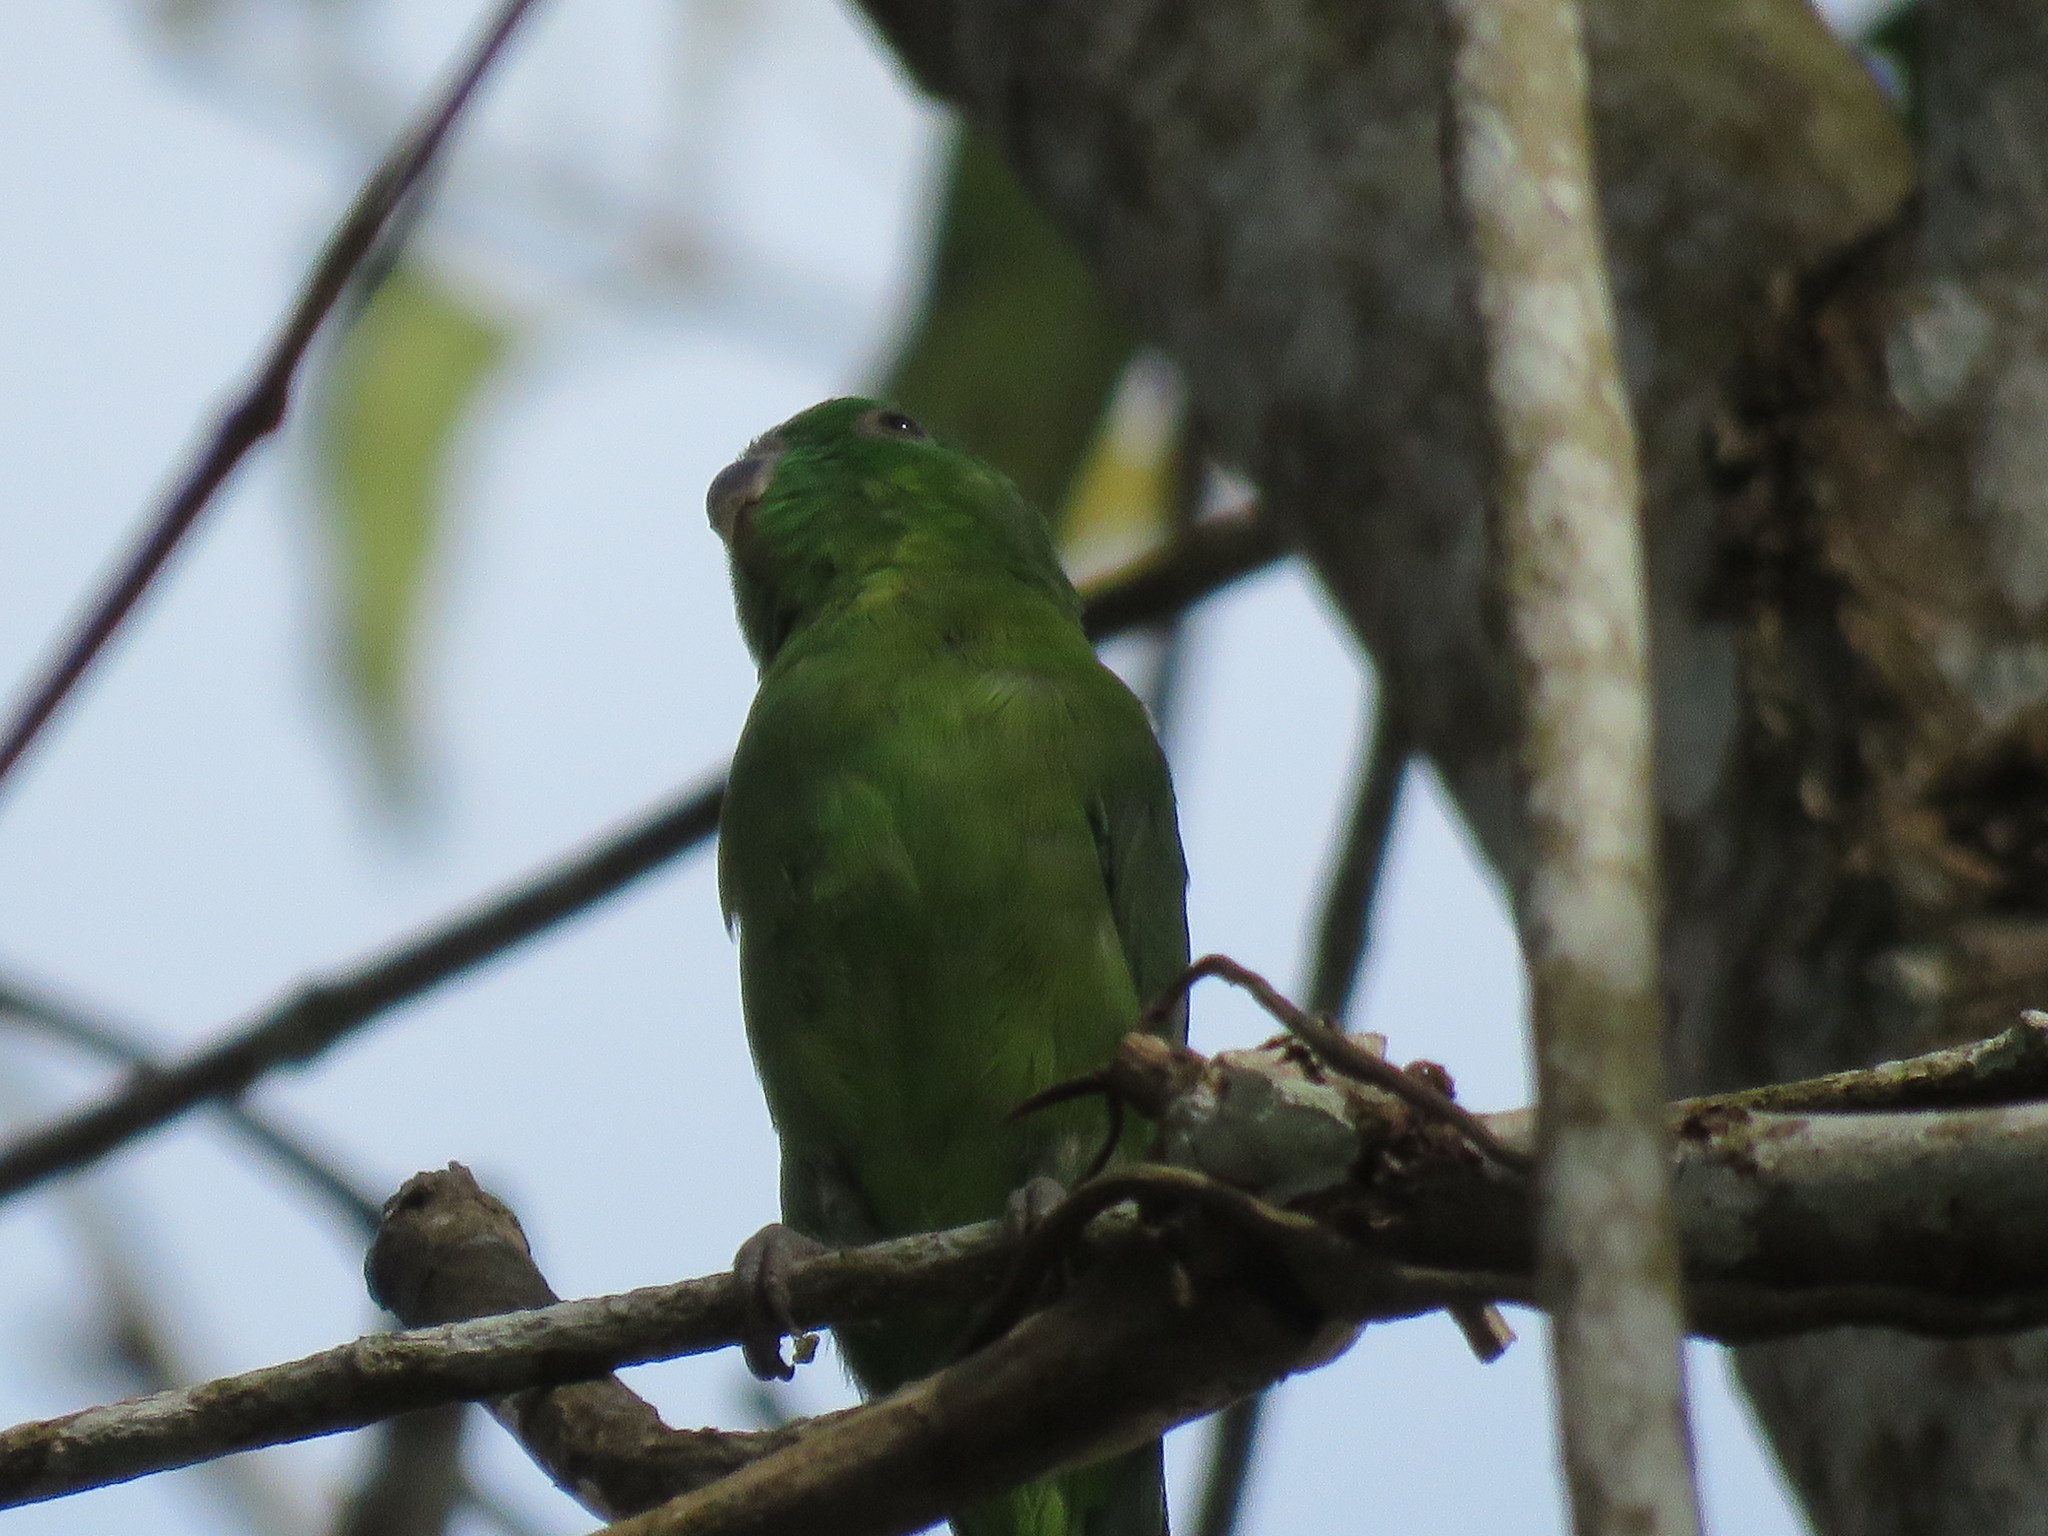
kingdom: Animalia
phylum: Chordata
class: Aves
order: Psittaciformes
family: Psittacidae
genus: Forpus
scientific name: Forpus modestus
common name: Dusky-billed parrotlet
